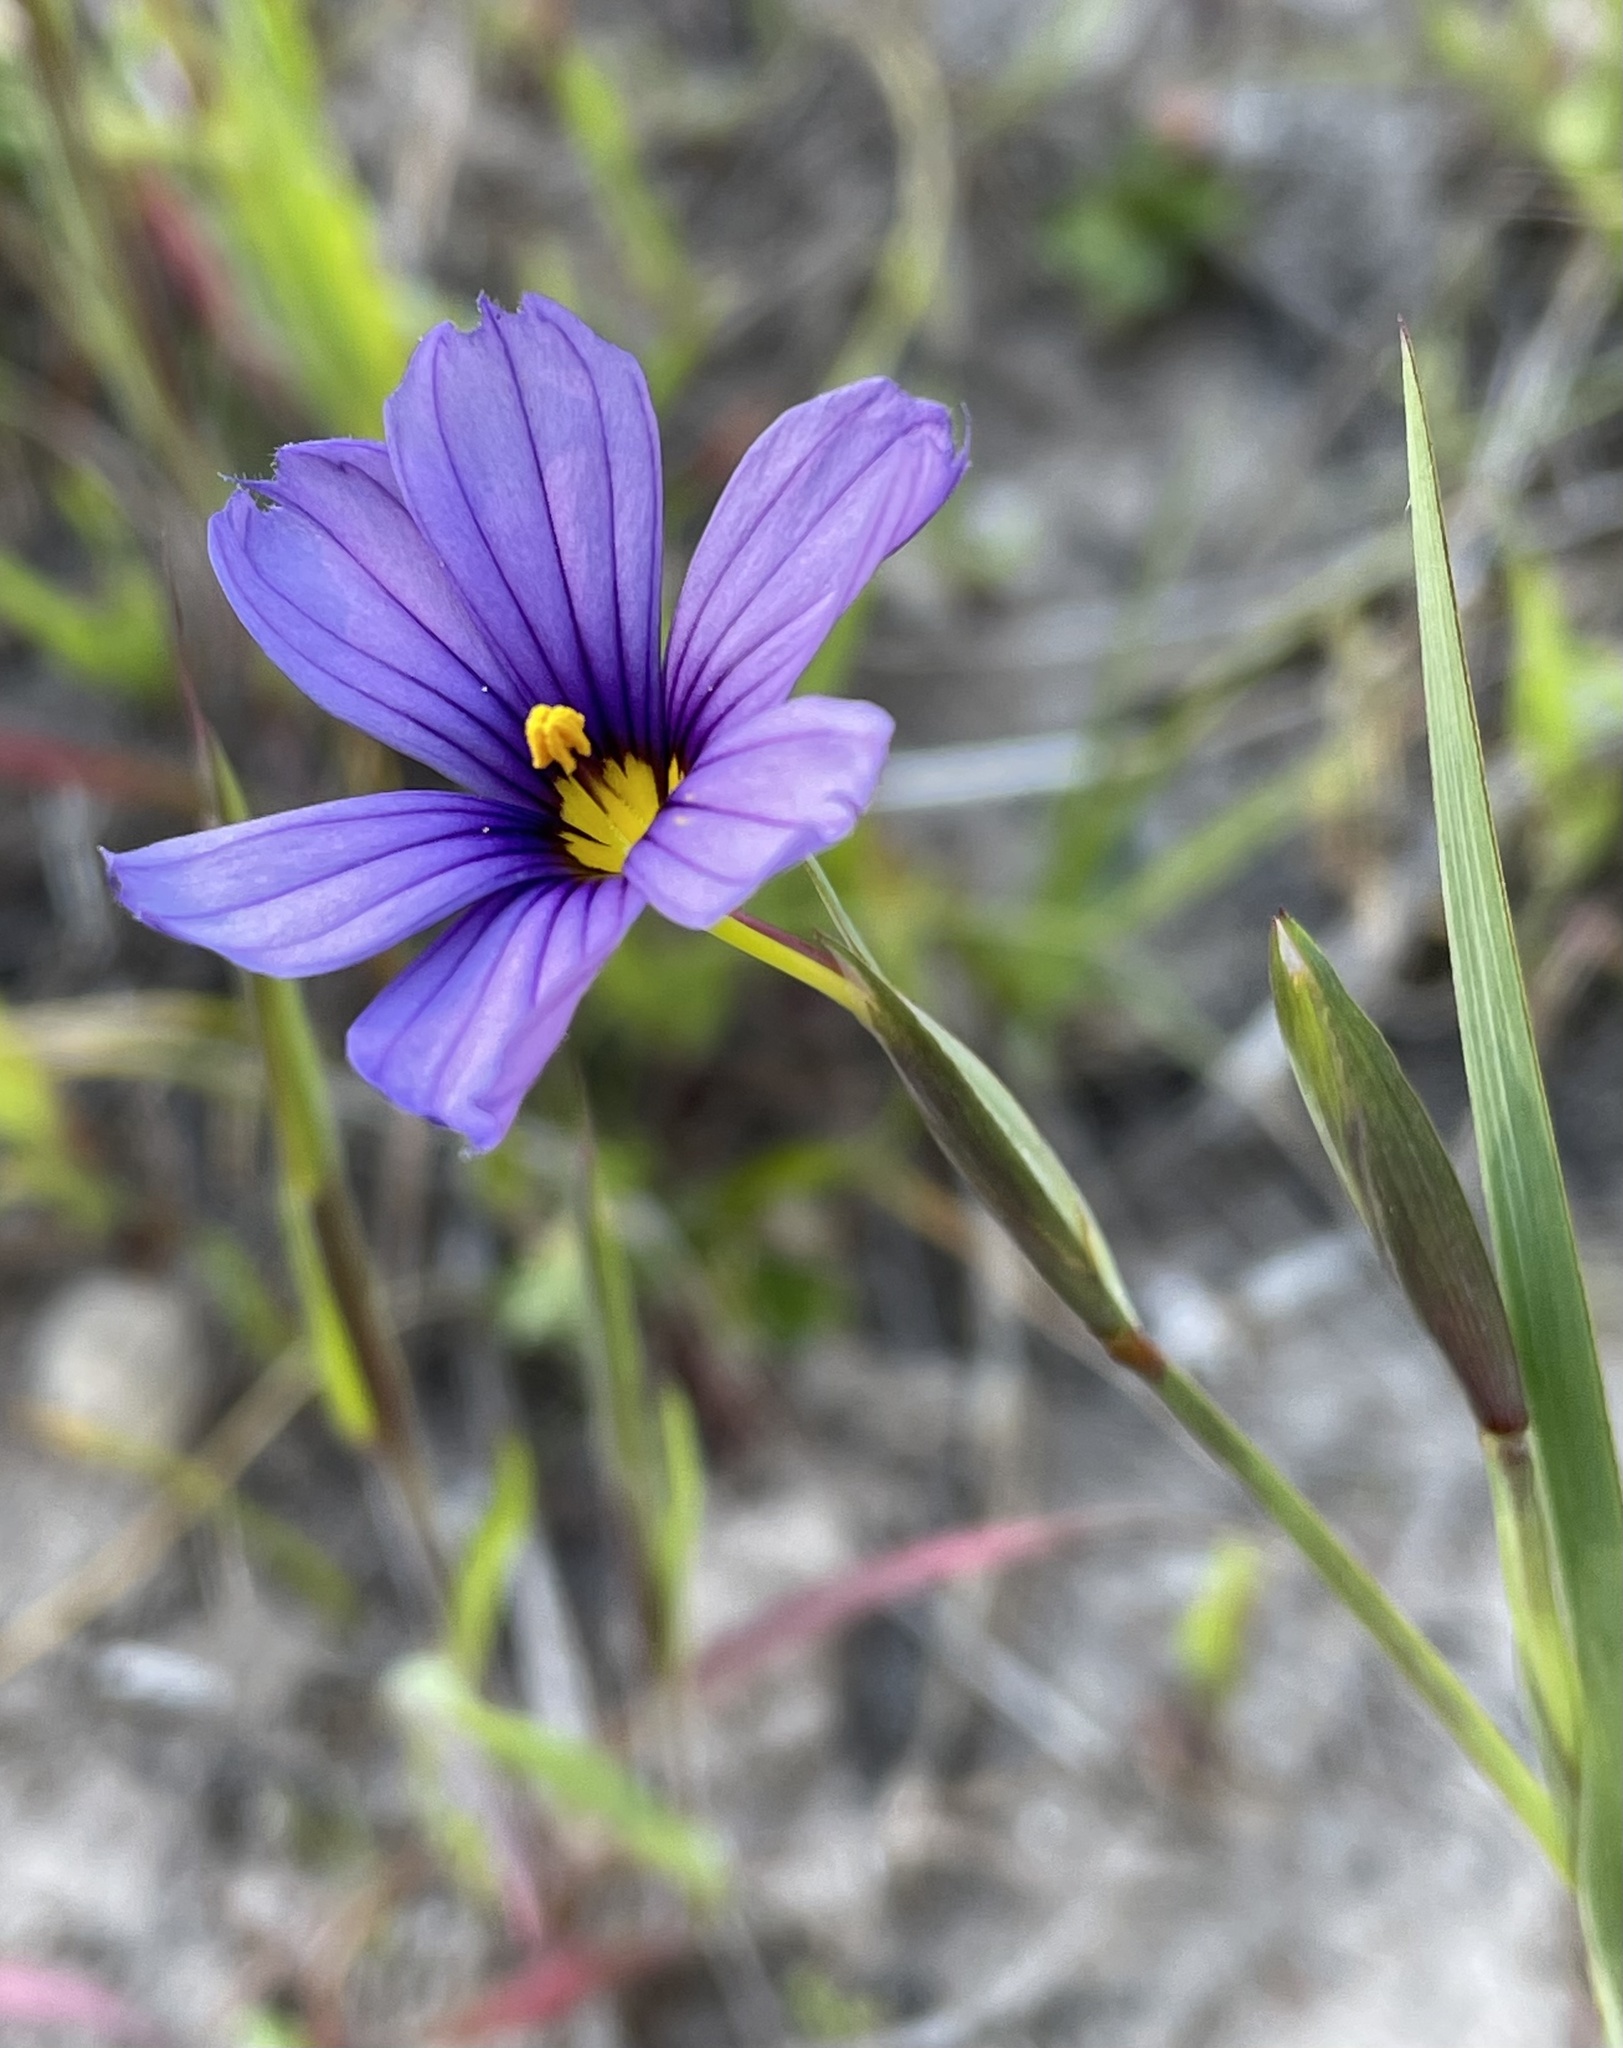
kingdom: Plantae
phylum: Tracheophyta
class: Liliopsida
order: Asparagales
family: Iridaceae
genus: Sisyrinchium
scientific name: Sisyrinchium bellum
